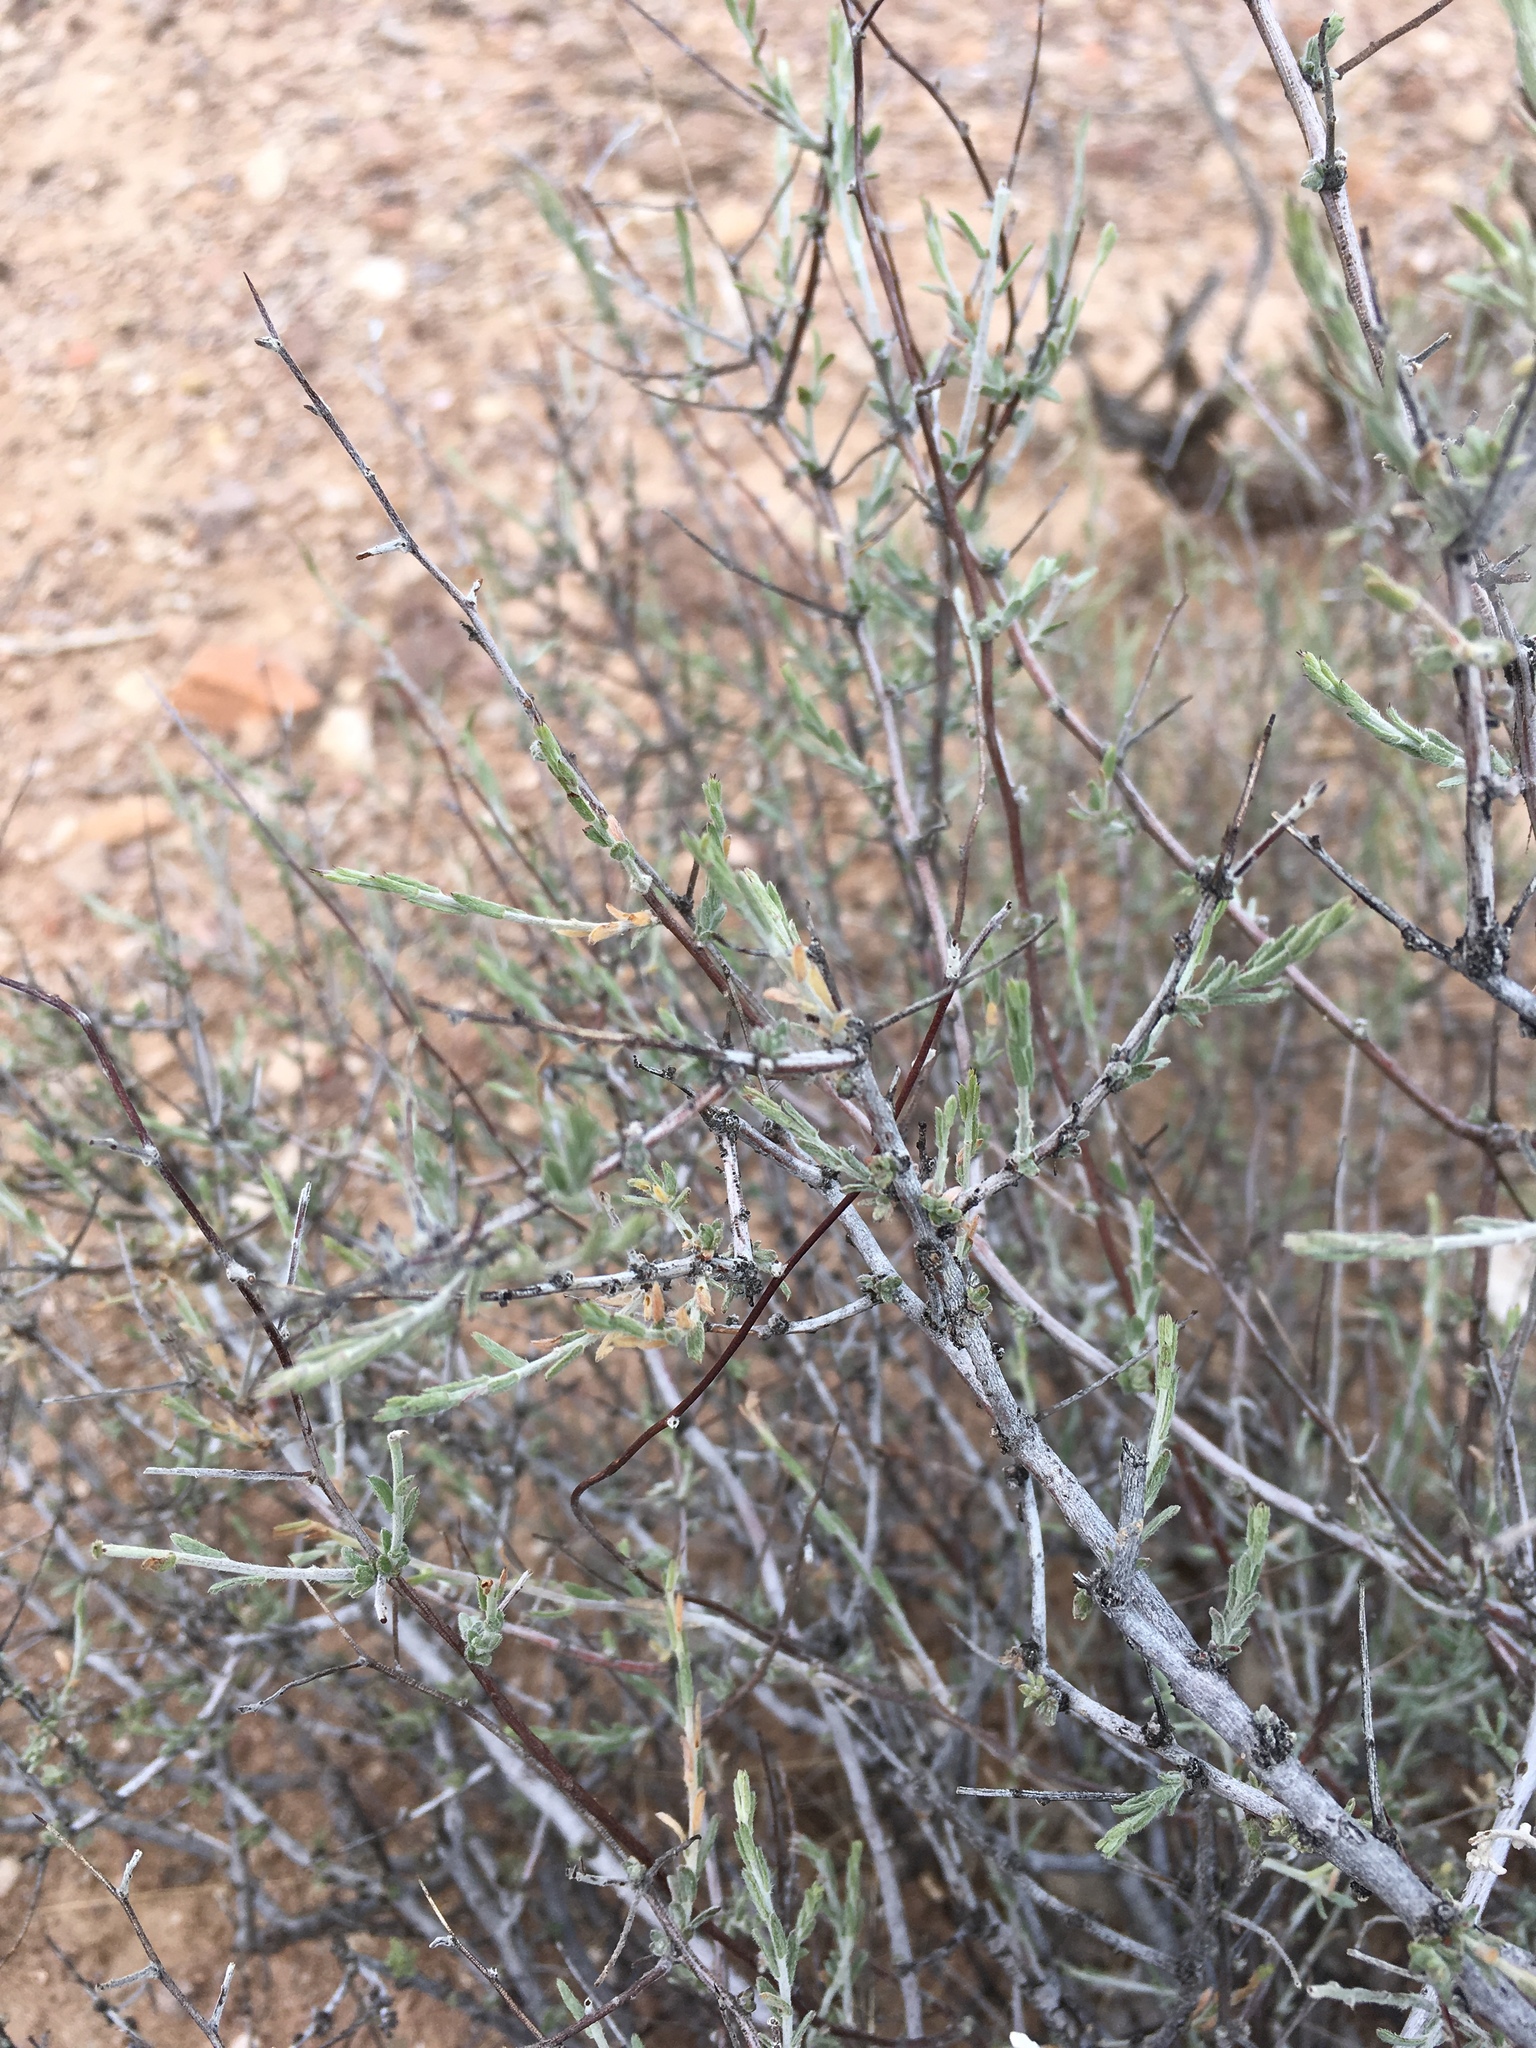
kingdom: Plantae
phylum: Tracheophyta
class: Magnoliopsida
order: Zygophyllales
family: Krameriaceae
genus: Krameria
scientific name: Krameria erecta
